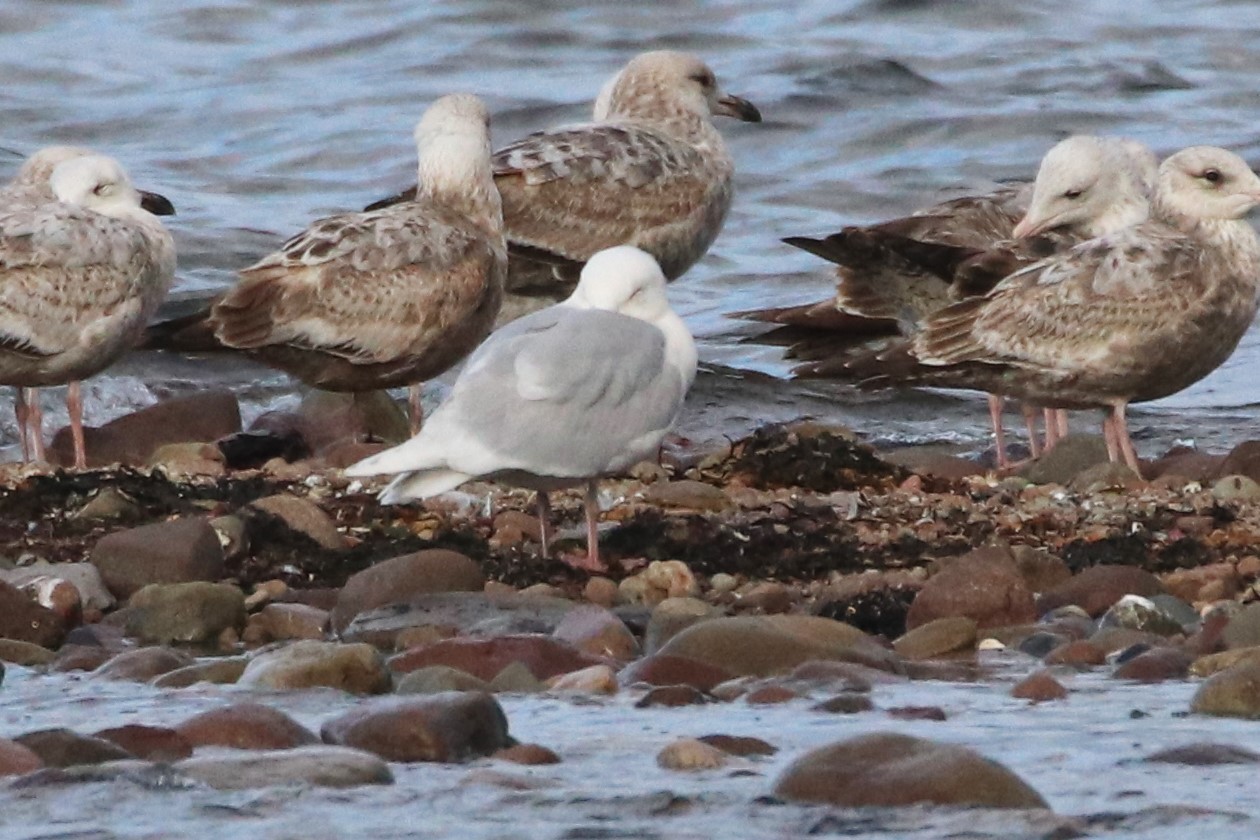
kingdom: Animalia
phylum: Chordata
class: Aves
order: Charadriiformes
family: Laridae
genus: Larus
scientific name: Larus glaucoides
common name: Iceland gull
